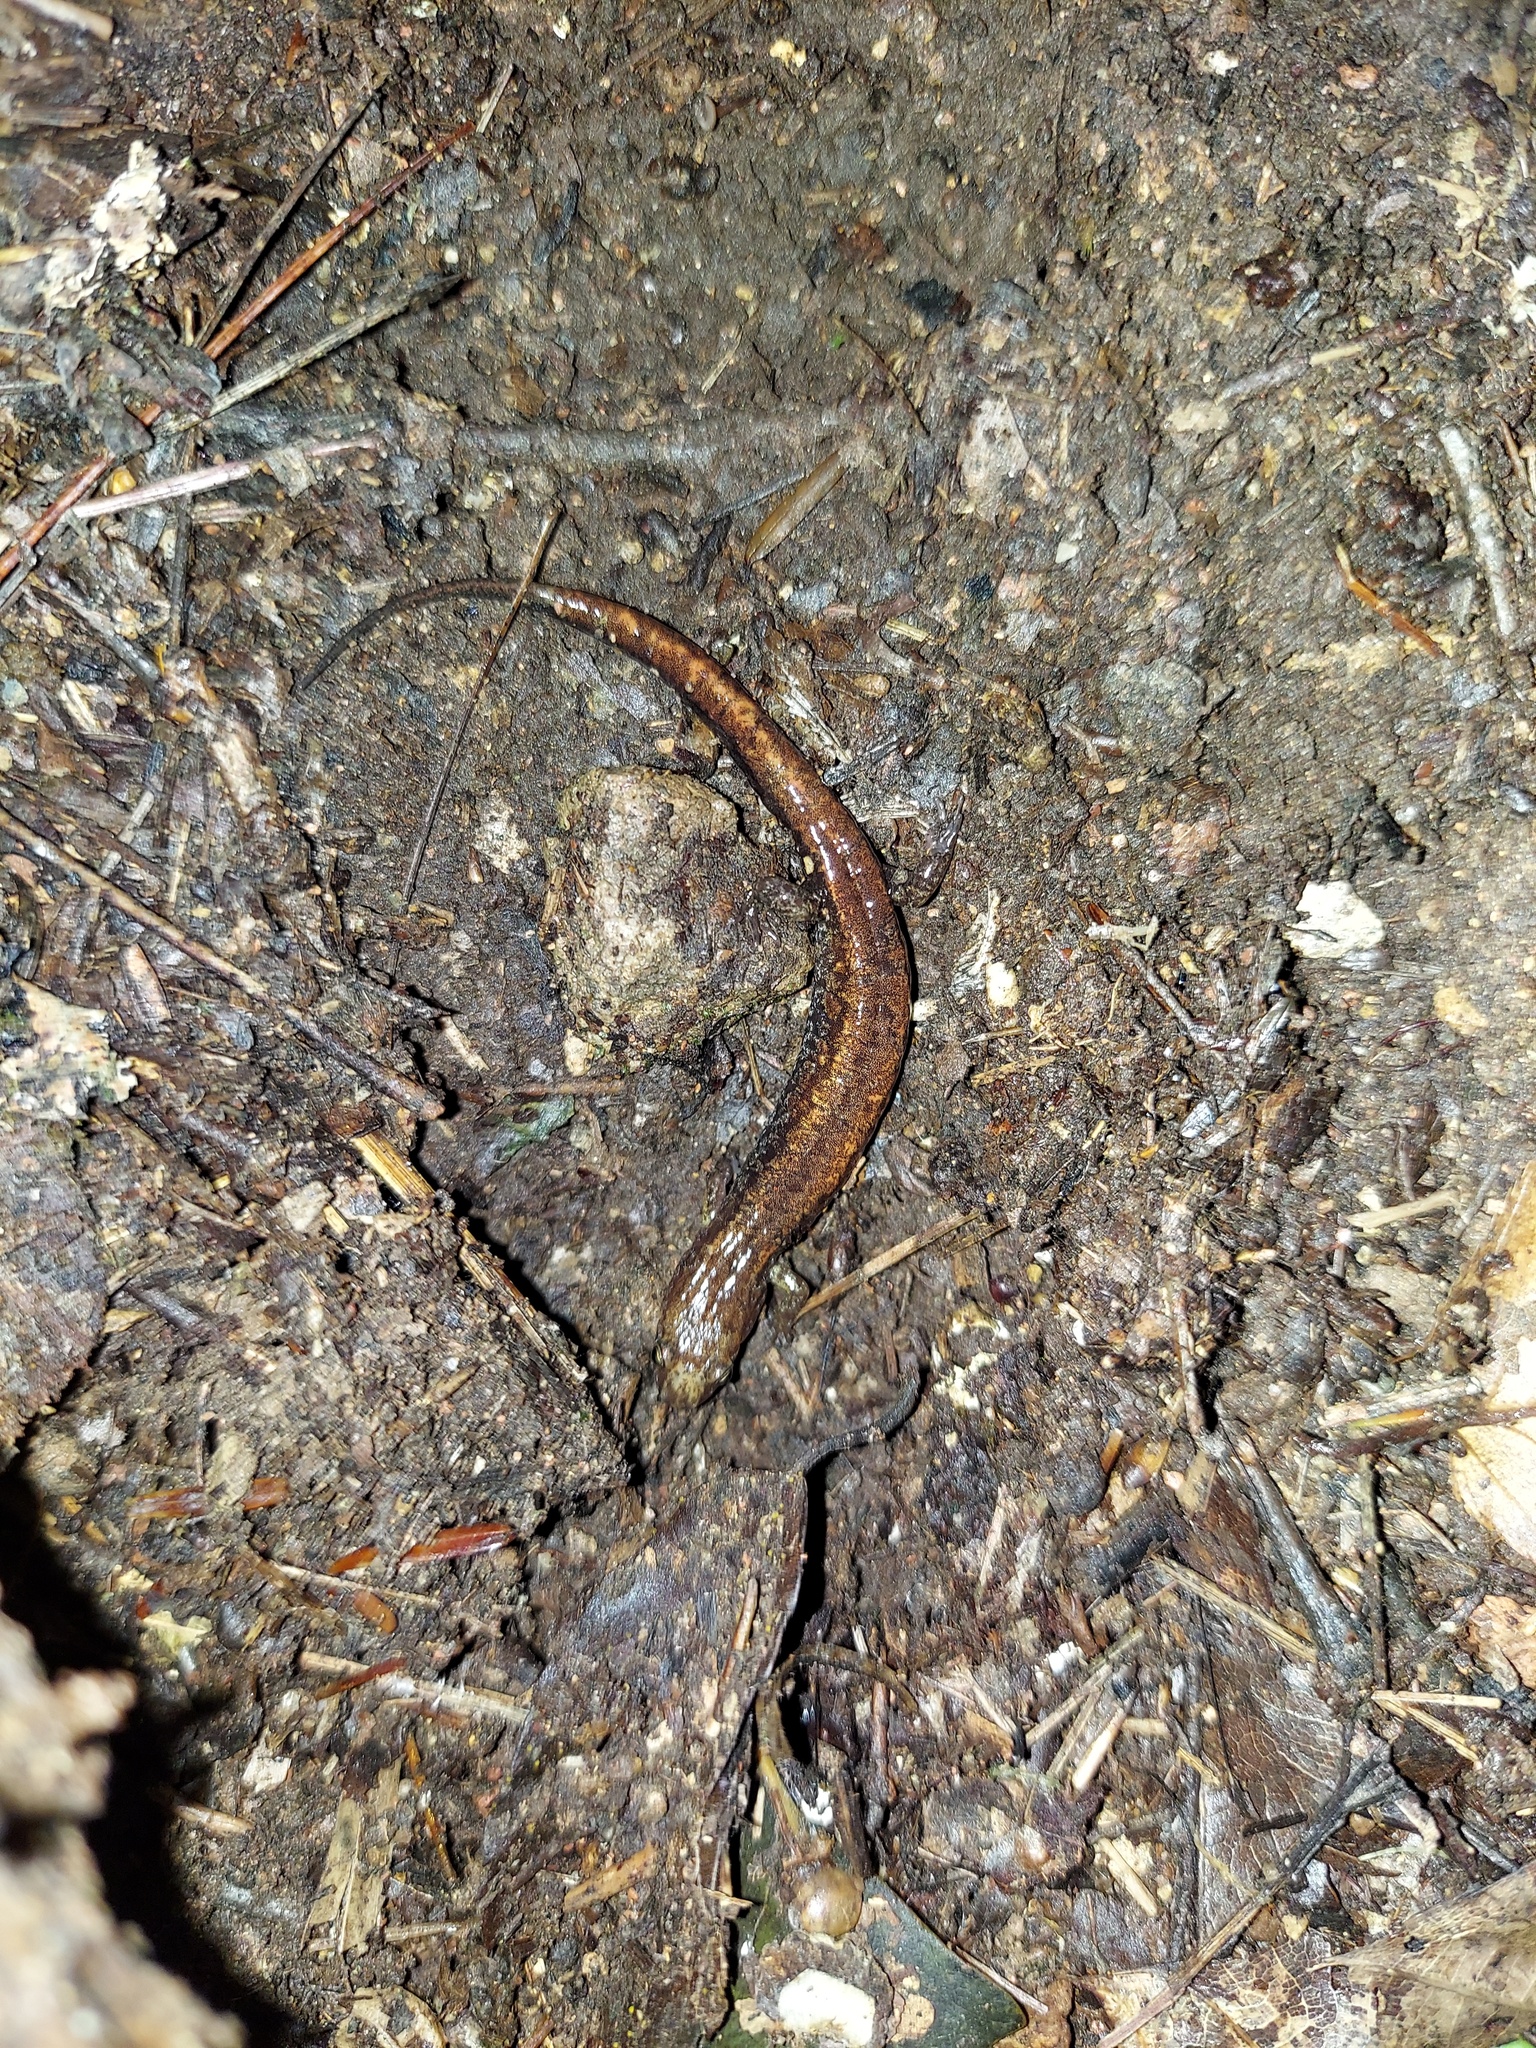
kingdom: Animalia
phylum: Chordata
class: Amphibia
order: Caudata
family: Plethodontidae
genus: Desmognathus
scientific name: Desmognathus orestes
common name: Blue ridge dusky salamander
